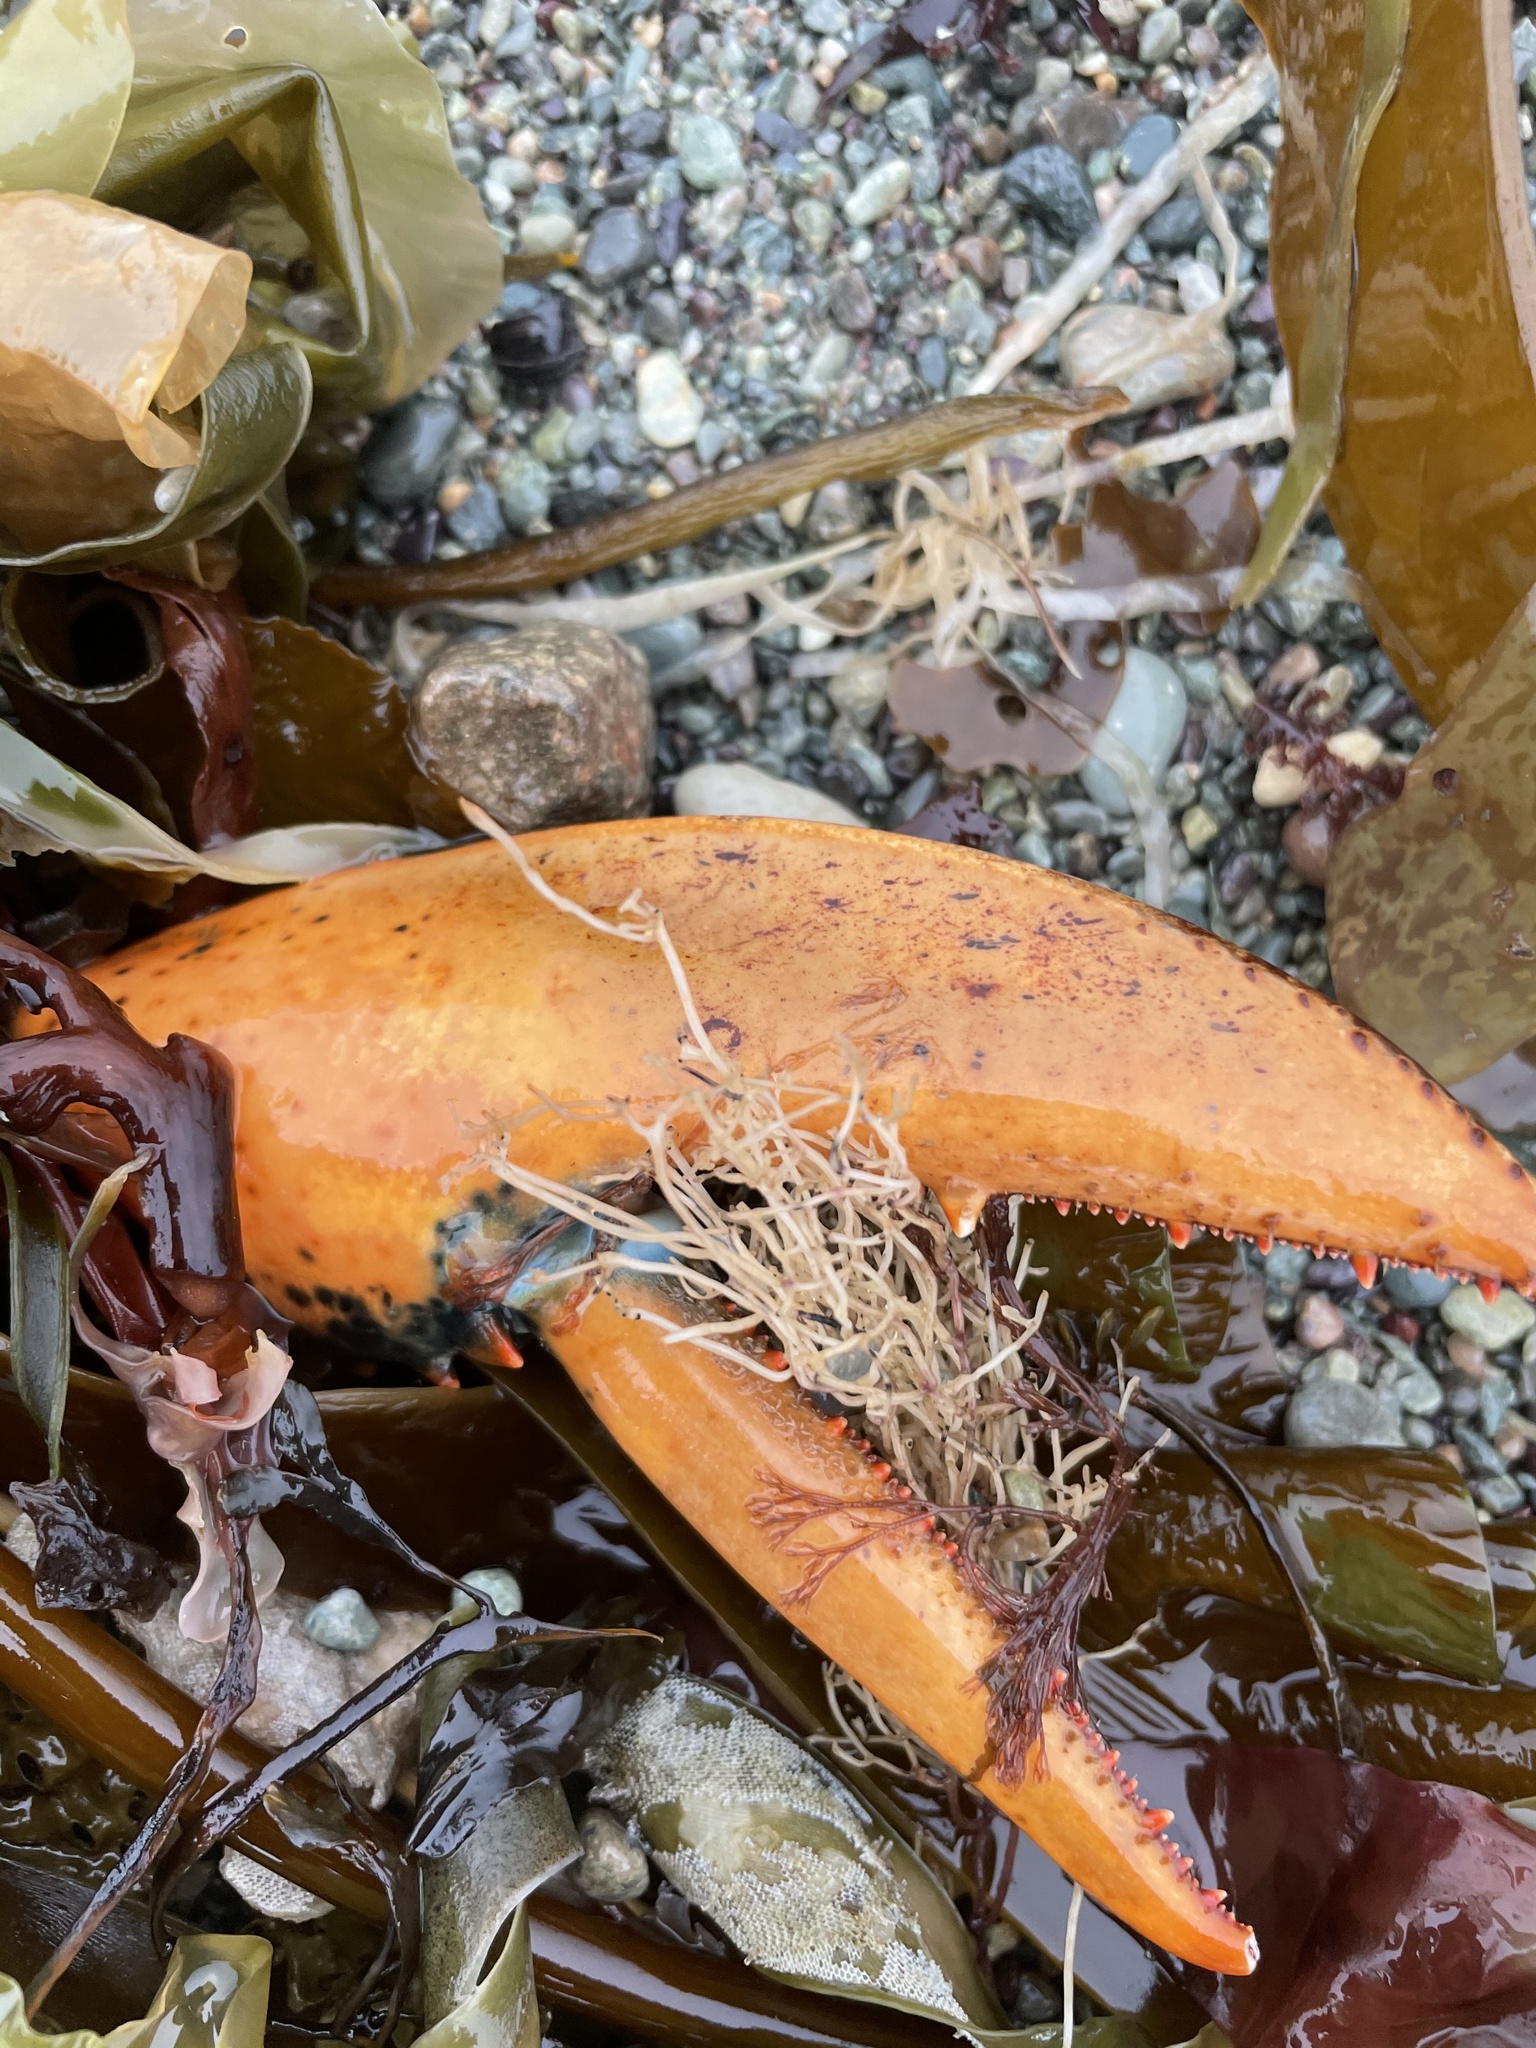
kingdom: Animalia
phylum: Arthropoda
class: Malacostraca
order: Decapoda
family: Nephropidae
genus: Homarus
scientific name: Homarus americanus
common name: American lobster
